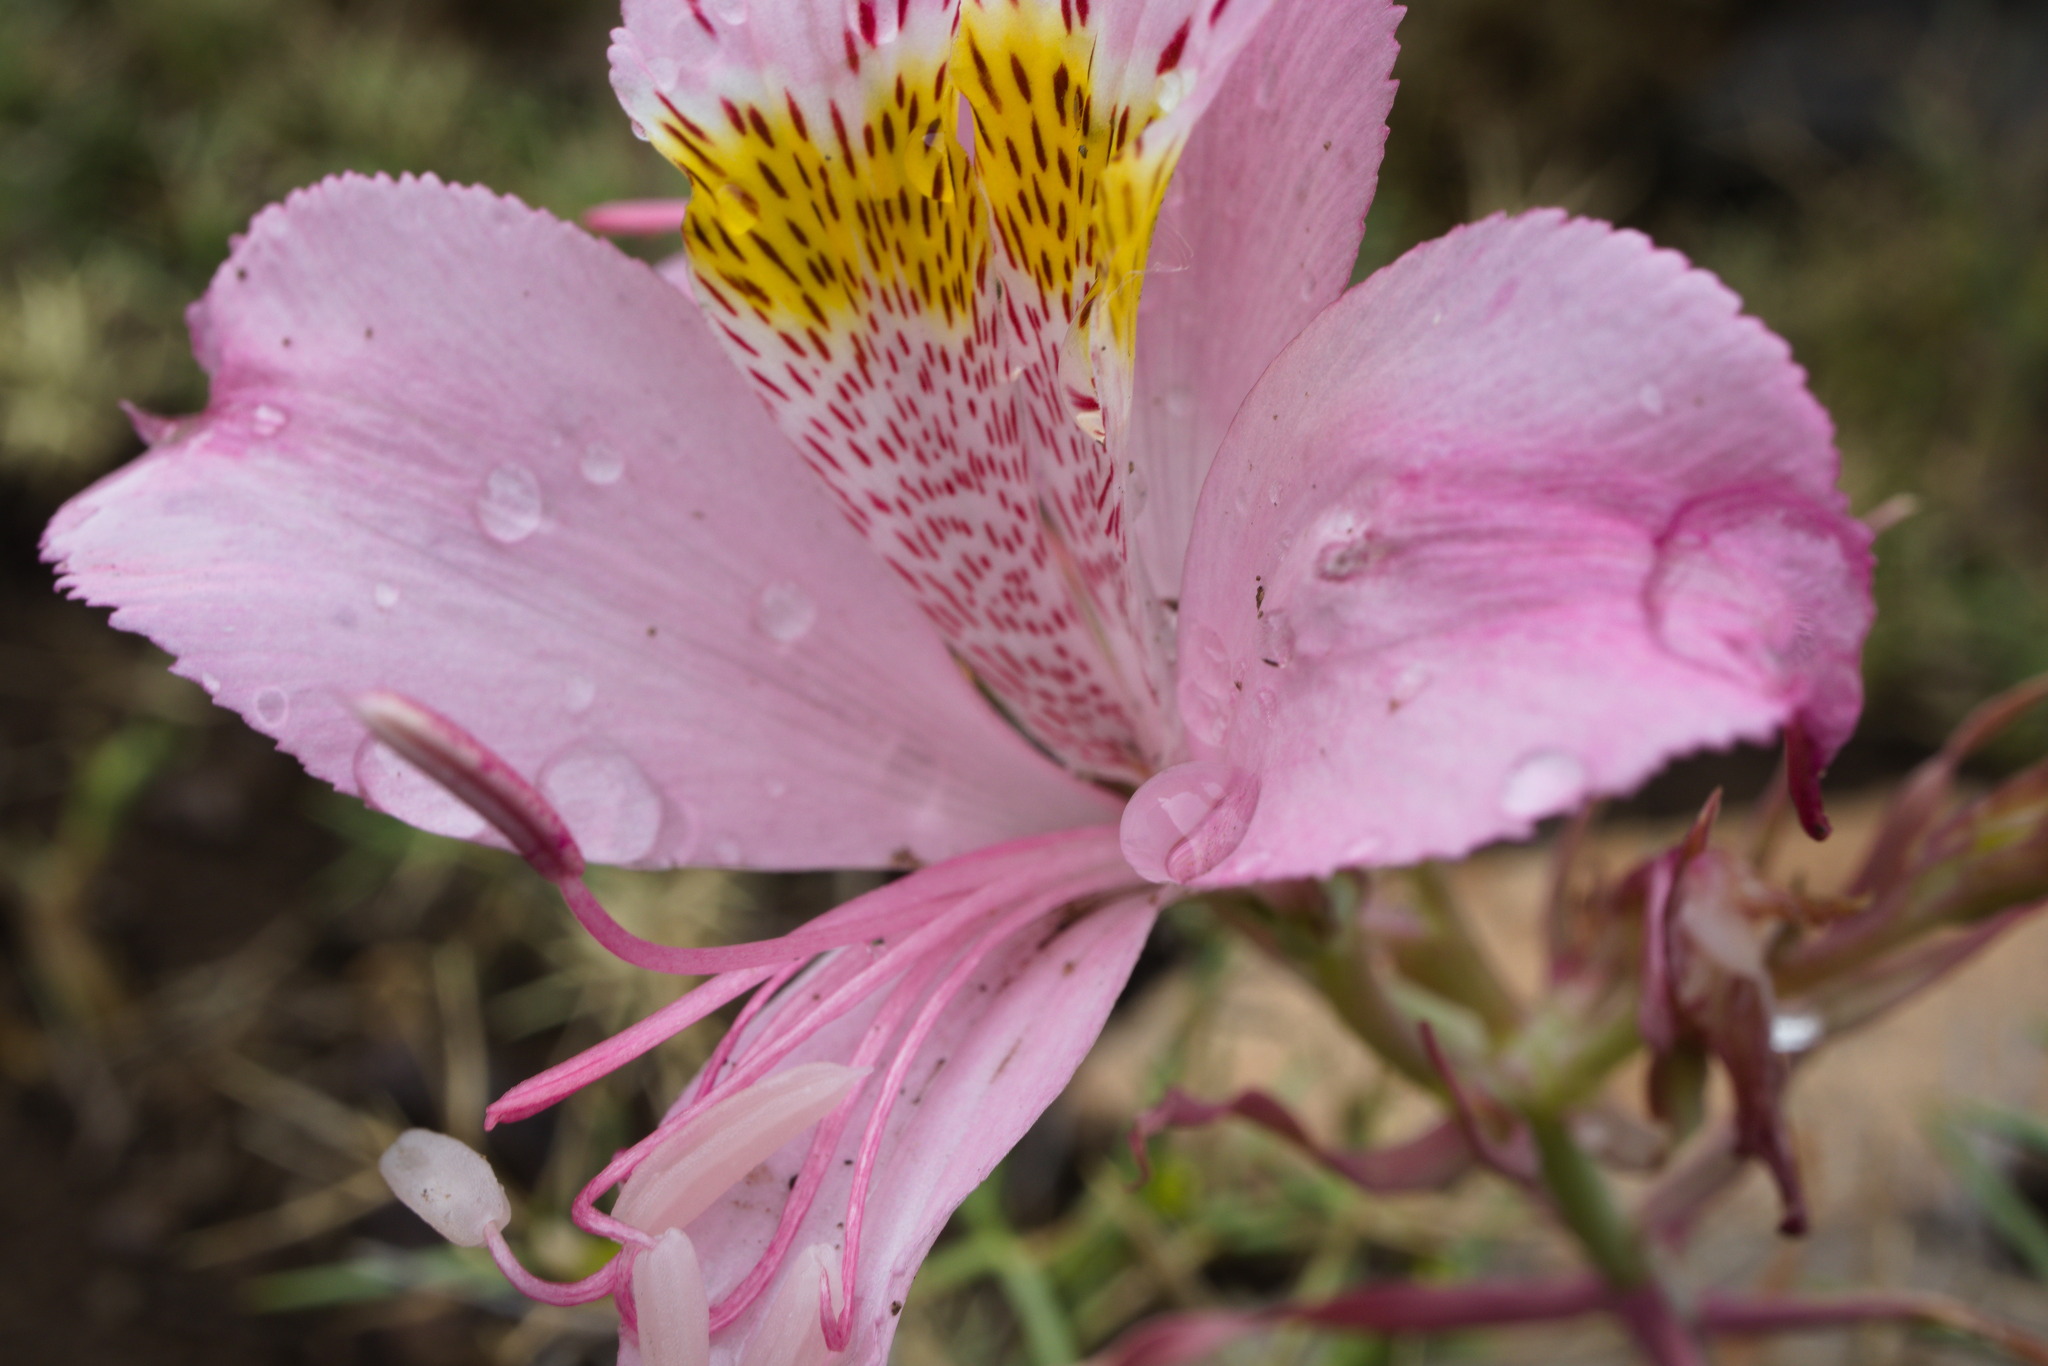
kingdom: Plantae
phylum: Tracheophyta
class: Liliopsida
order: Liliales
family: Alstroemeriaceae
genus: Alstroemeria
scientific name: Alstroemeria pallida
